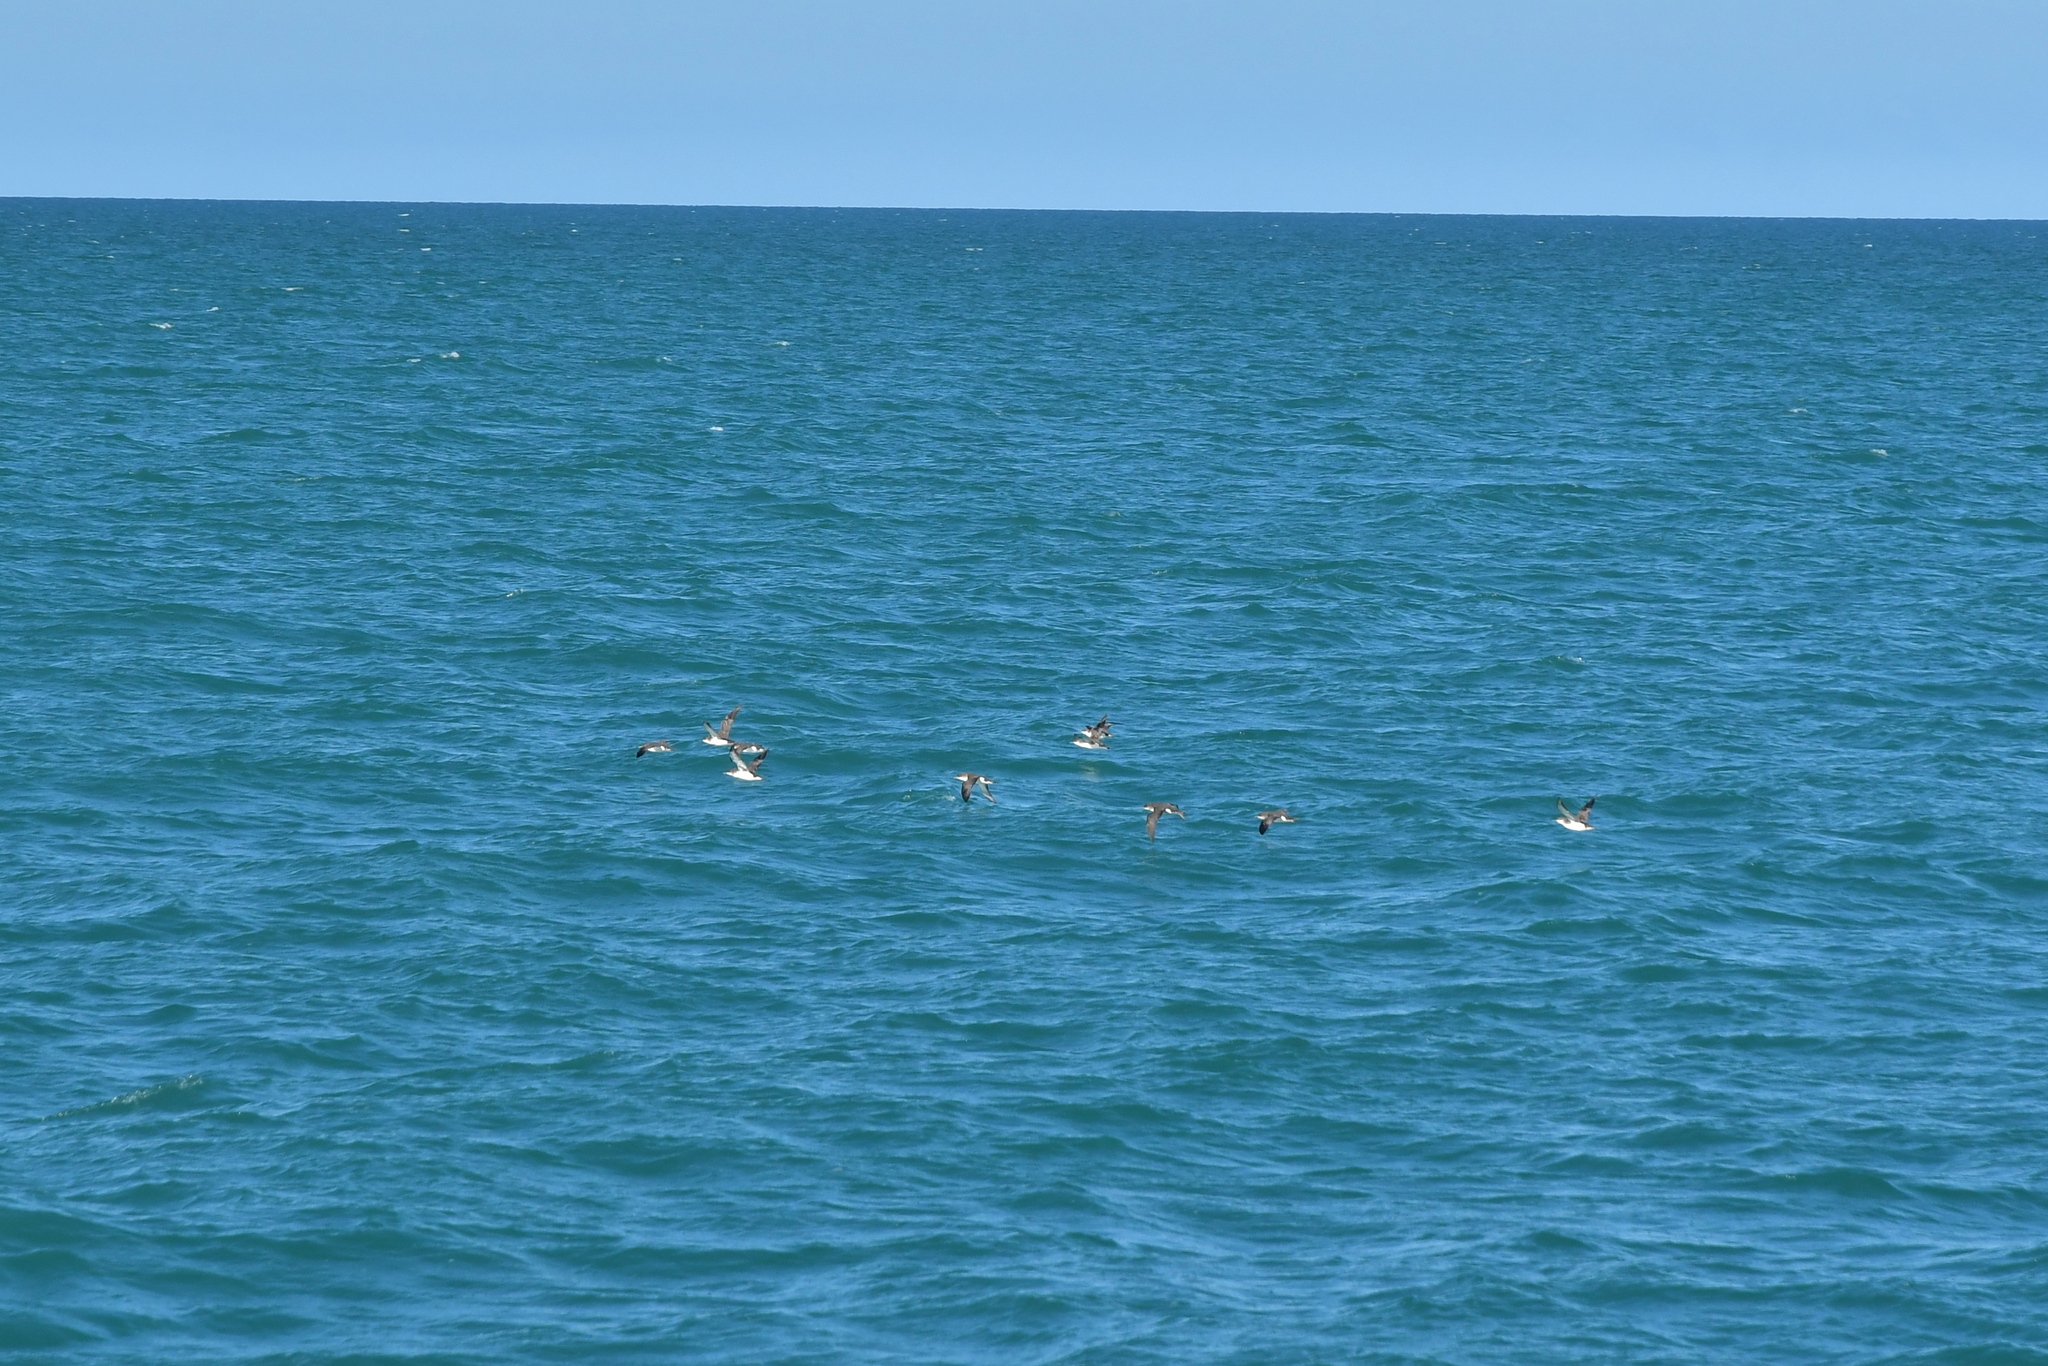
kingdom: Animalia
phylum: Chordata
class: Aves
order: Procellariiformes
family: Procellariidae
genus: Puffinus
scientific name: Puffinus gavia
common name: Fluttering shearwater
